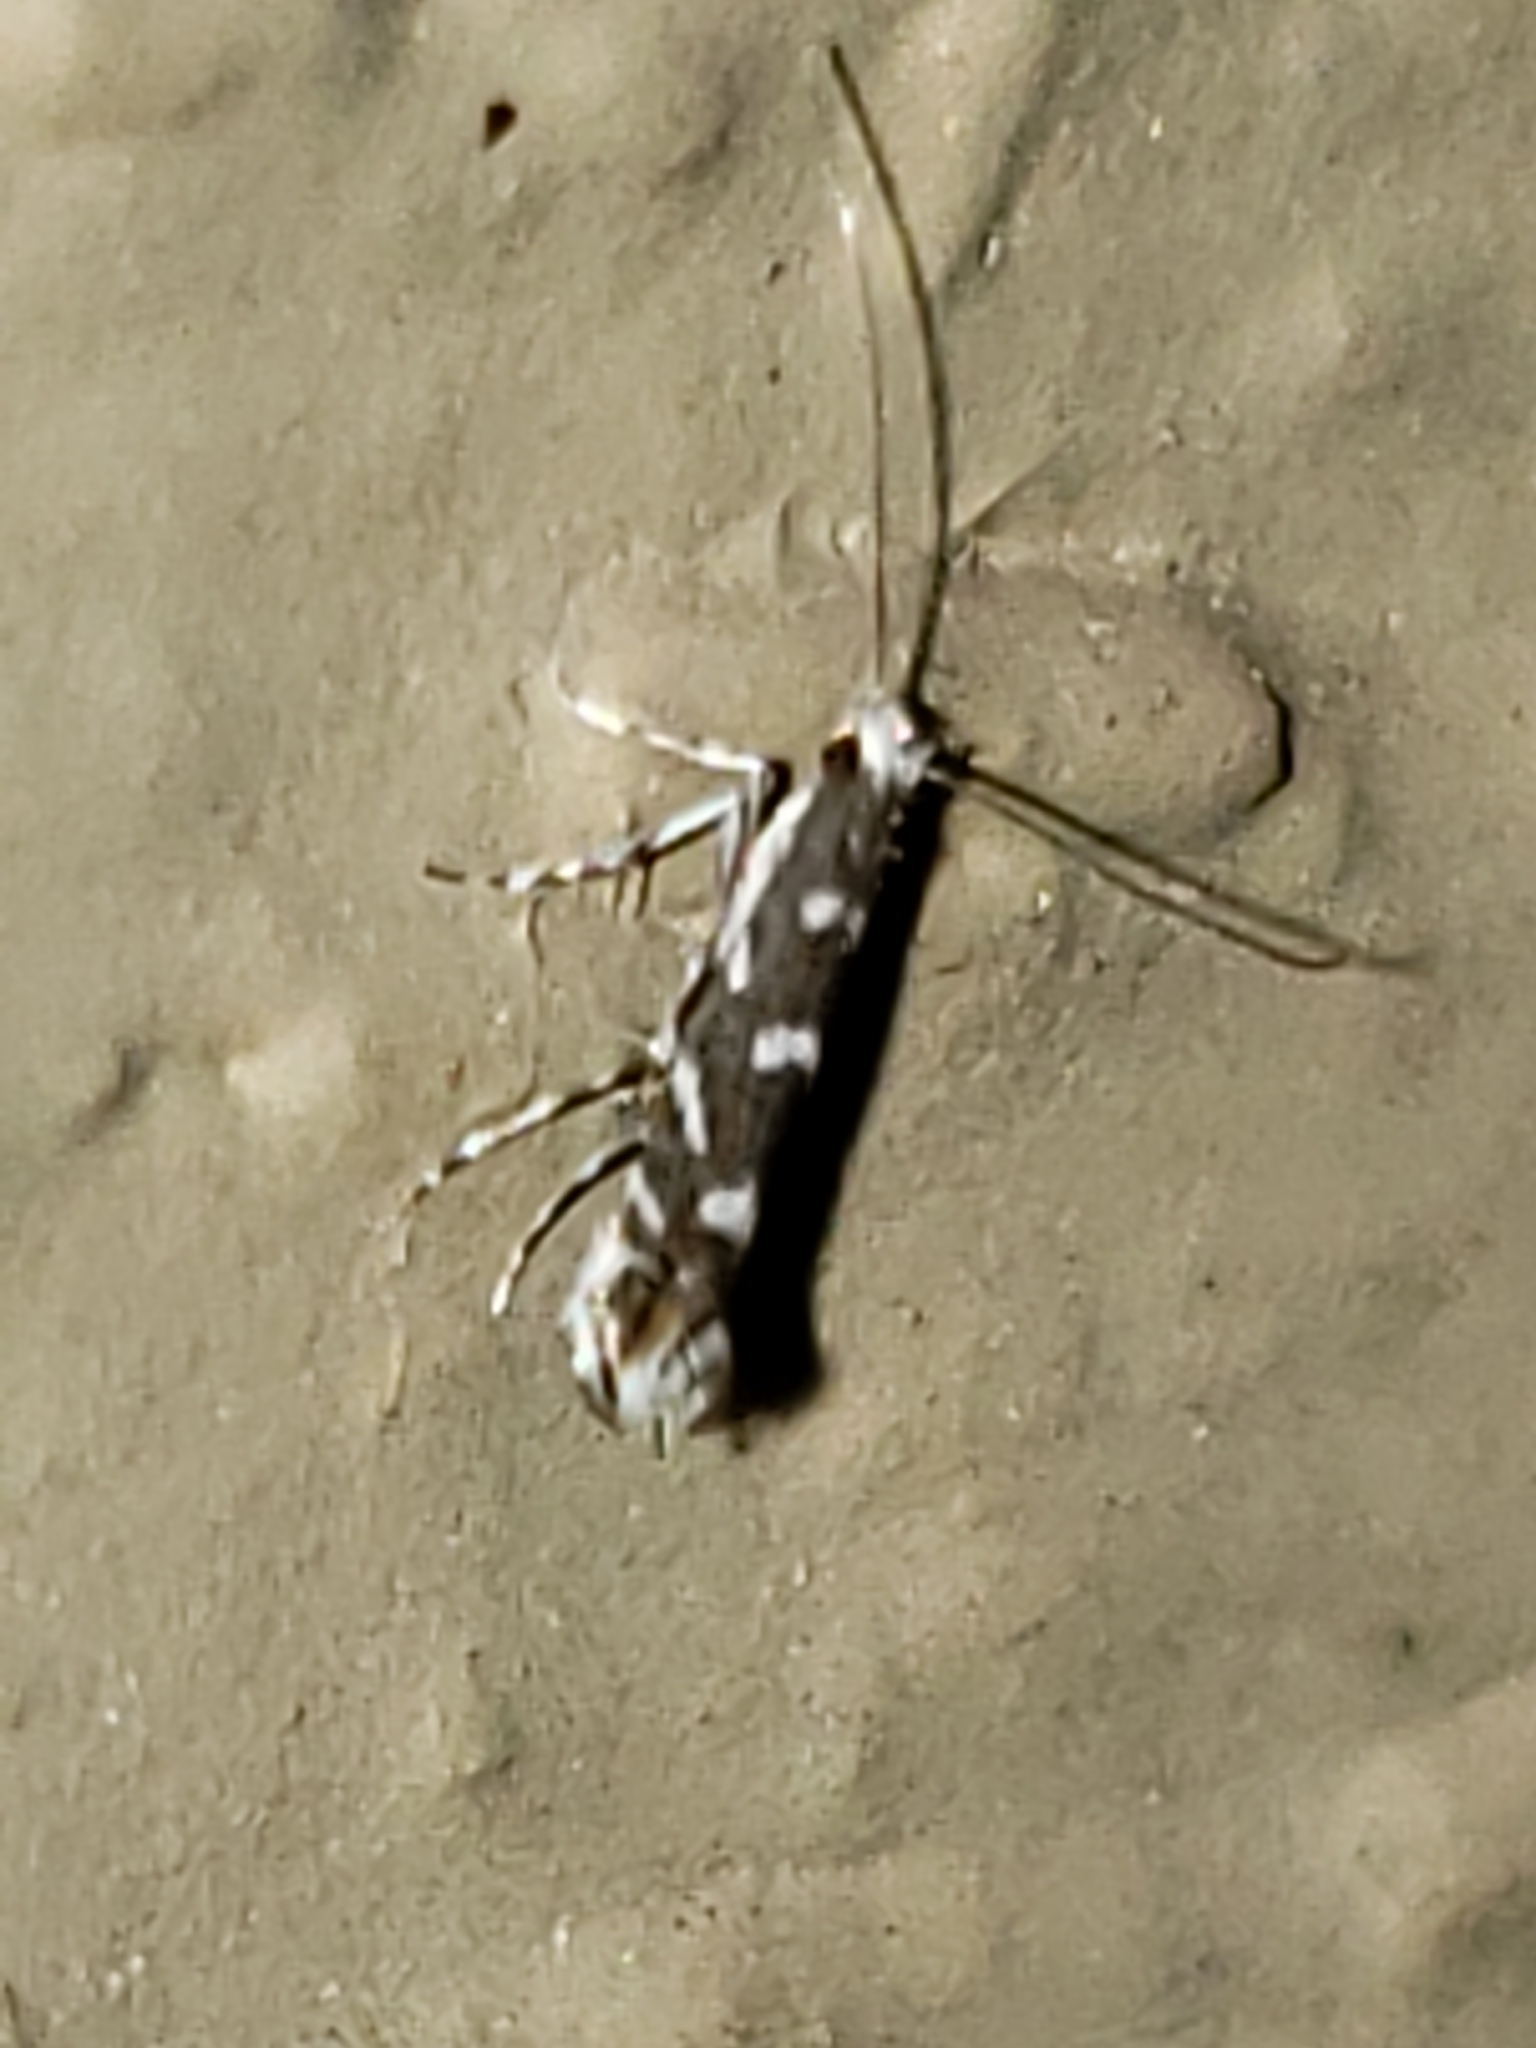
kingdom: Animalia
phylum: Arthropoda
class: Insecta
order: Lepidoptera
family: Gracillariidae
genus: Parectopa
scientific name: Parectopa robiniella
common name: Locust digitate leafminer
